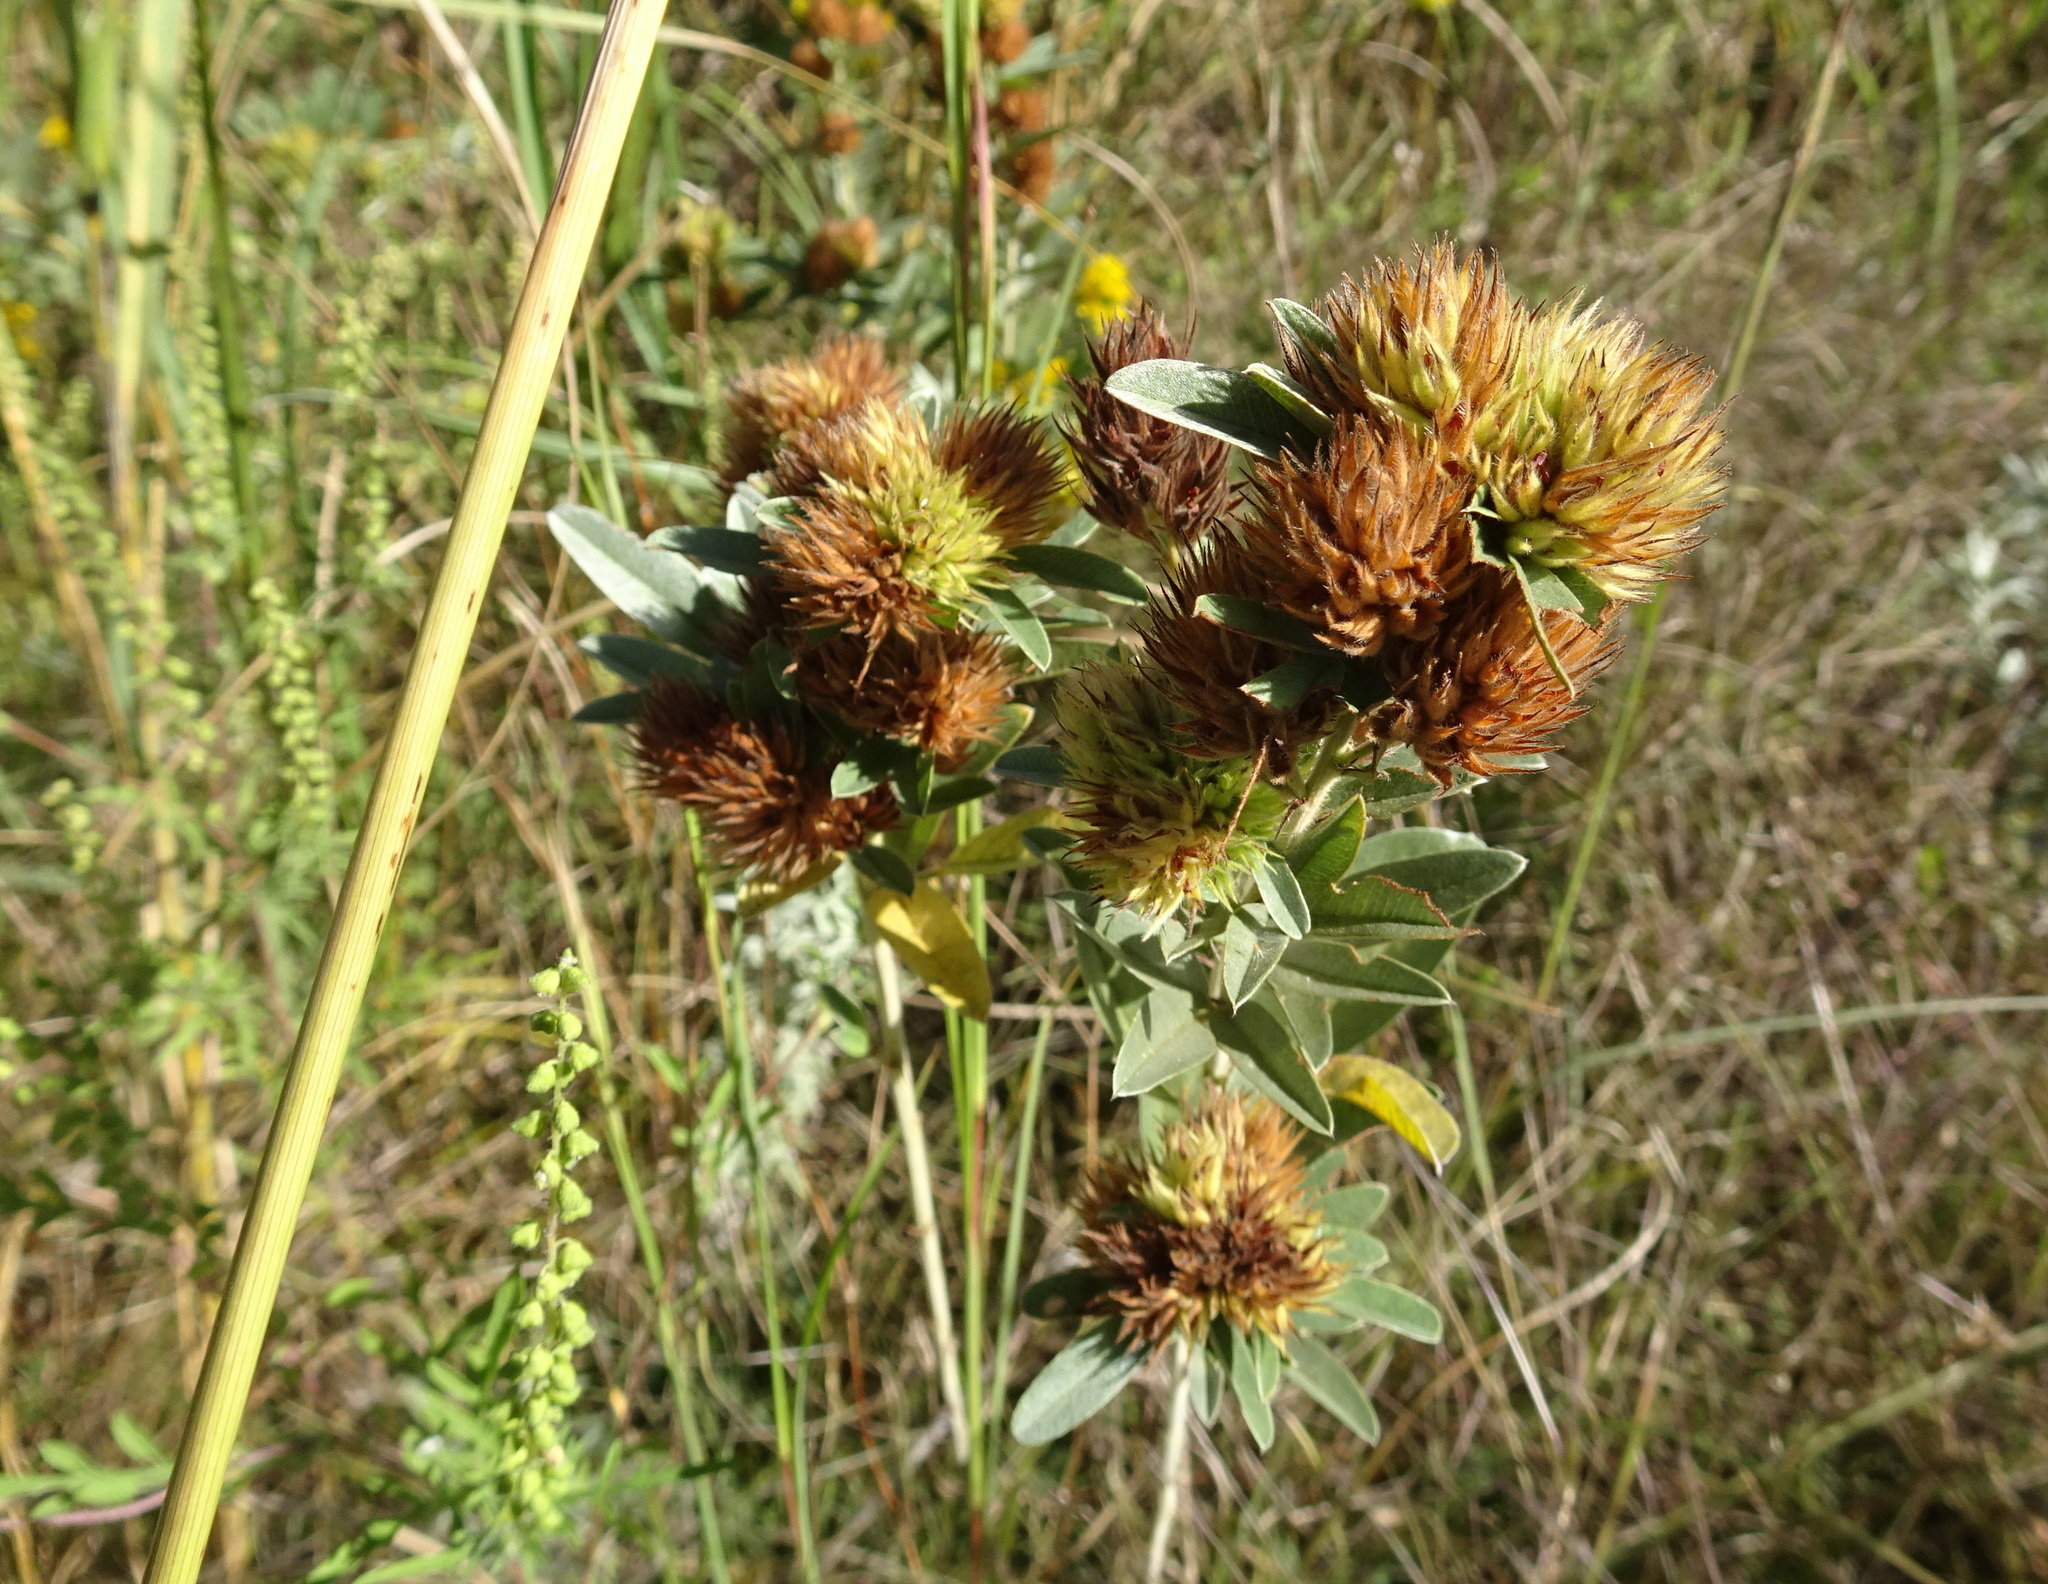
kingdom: Plantae
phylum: Tracheophyta
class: Magnoliopsida
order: Fabales
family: Fabaceae
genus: Lespedeza
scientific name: Lespedeza capitata
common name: Dusty clover
